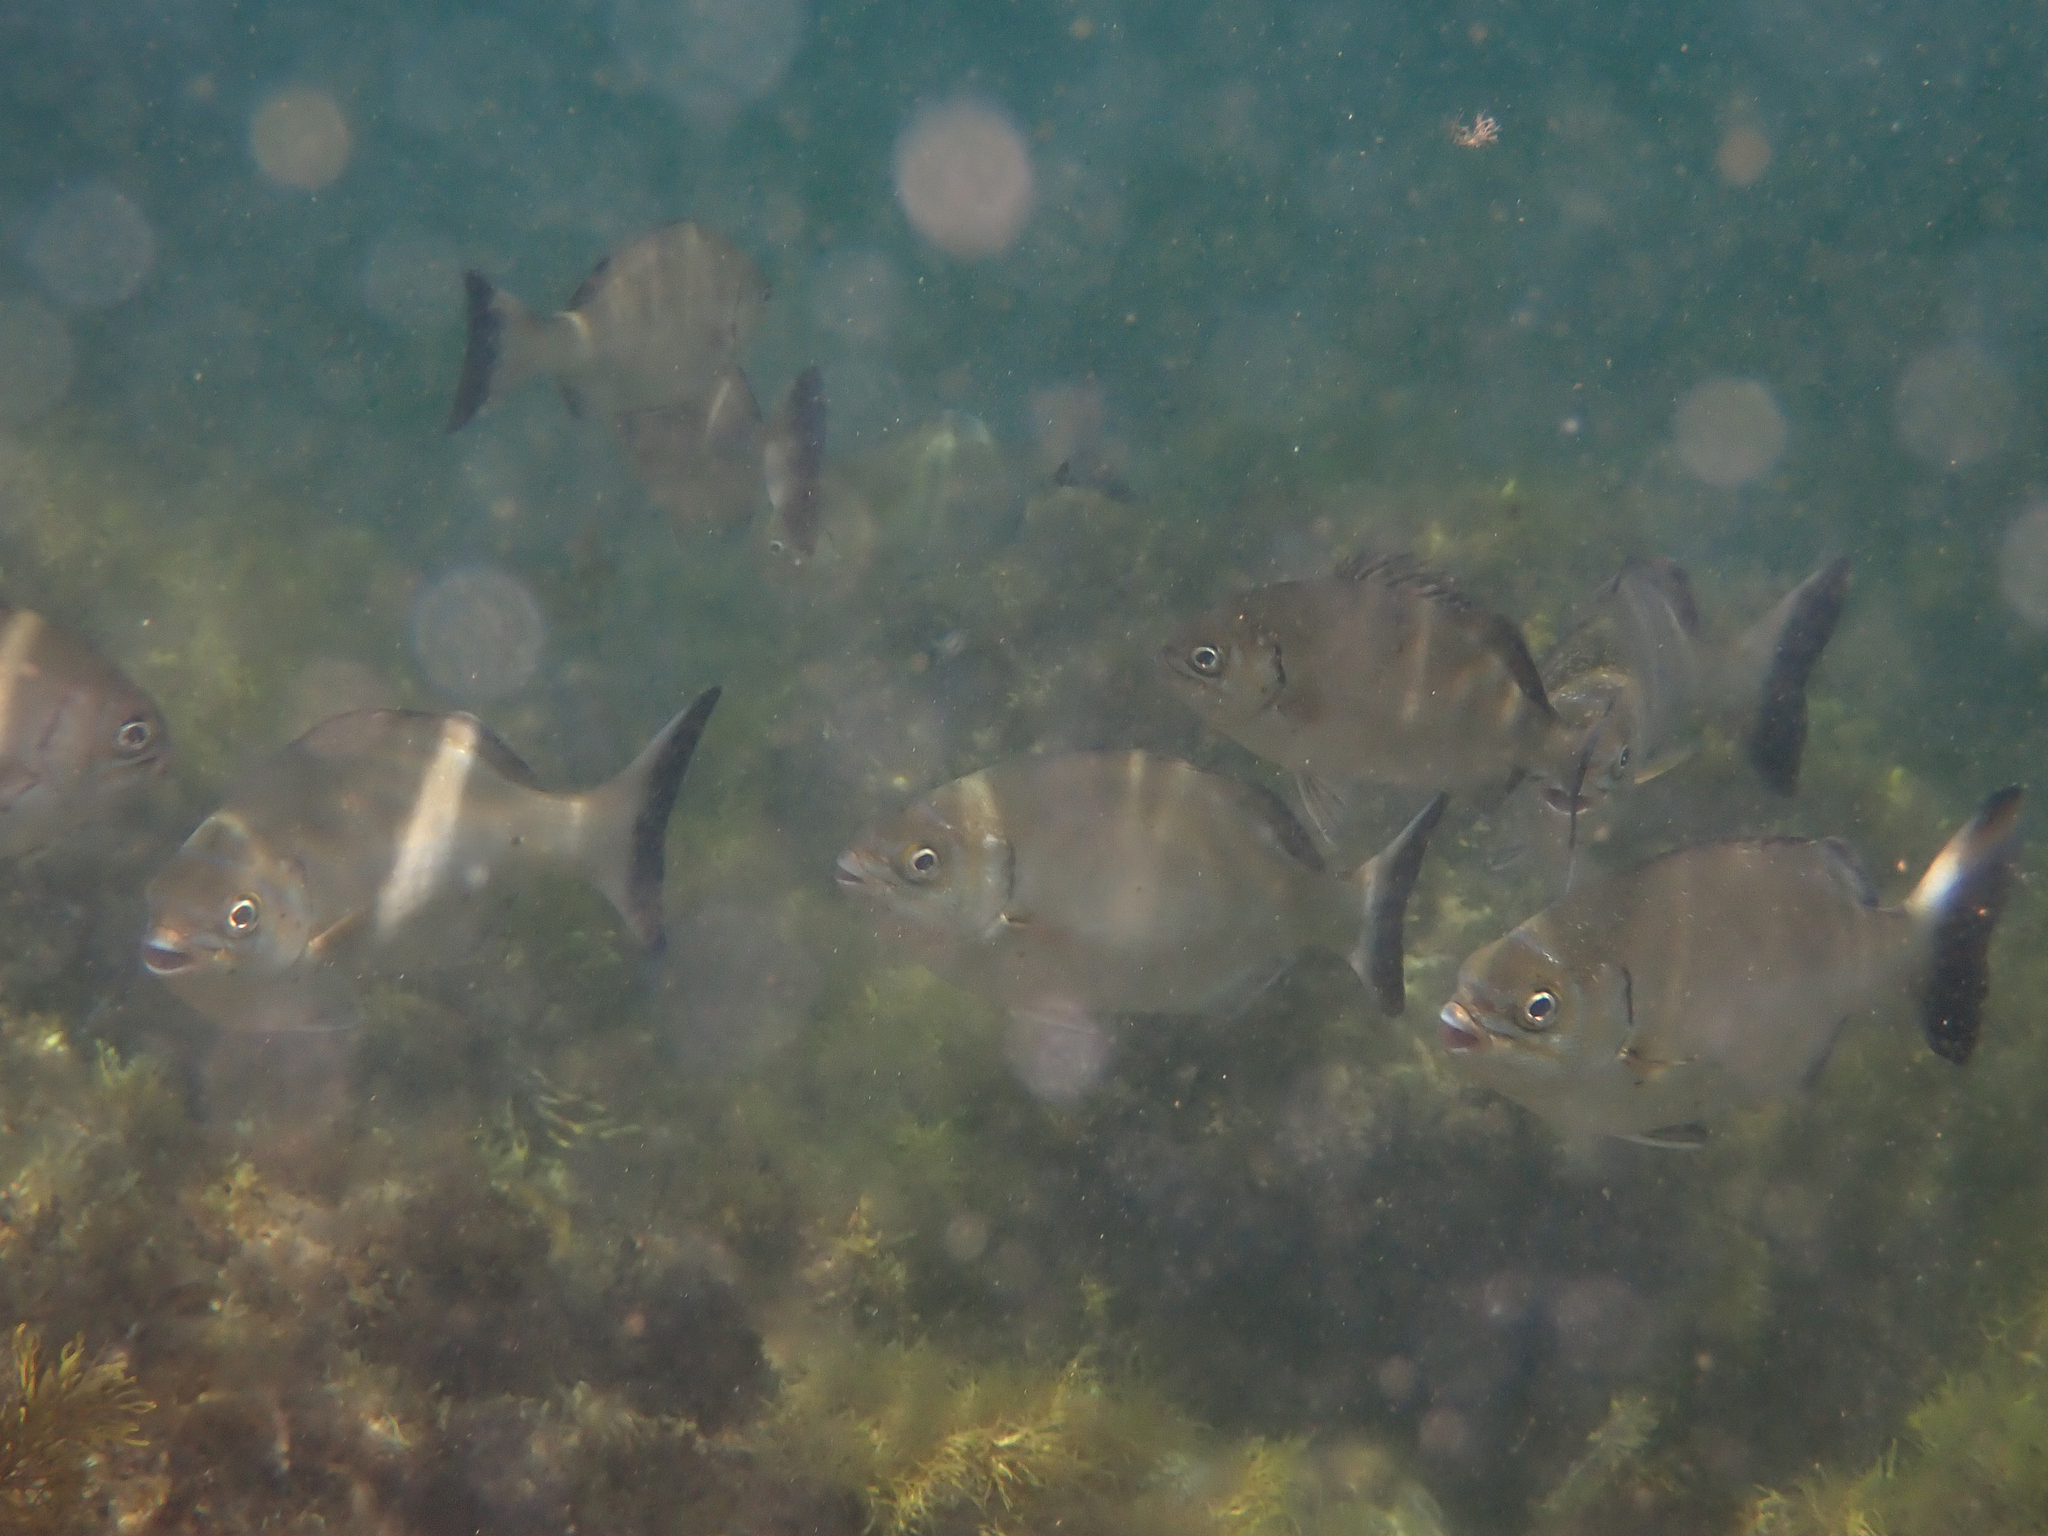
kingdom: Animalia
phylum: Chordata
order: Perciformes
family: Kyphosidae
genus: Kyphosus
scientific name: Kyphosus sydneyanus
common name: Silver drummer
